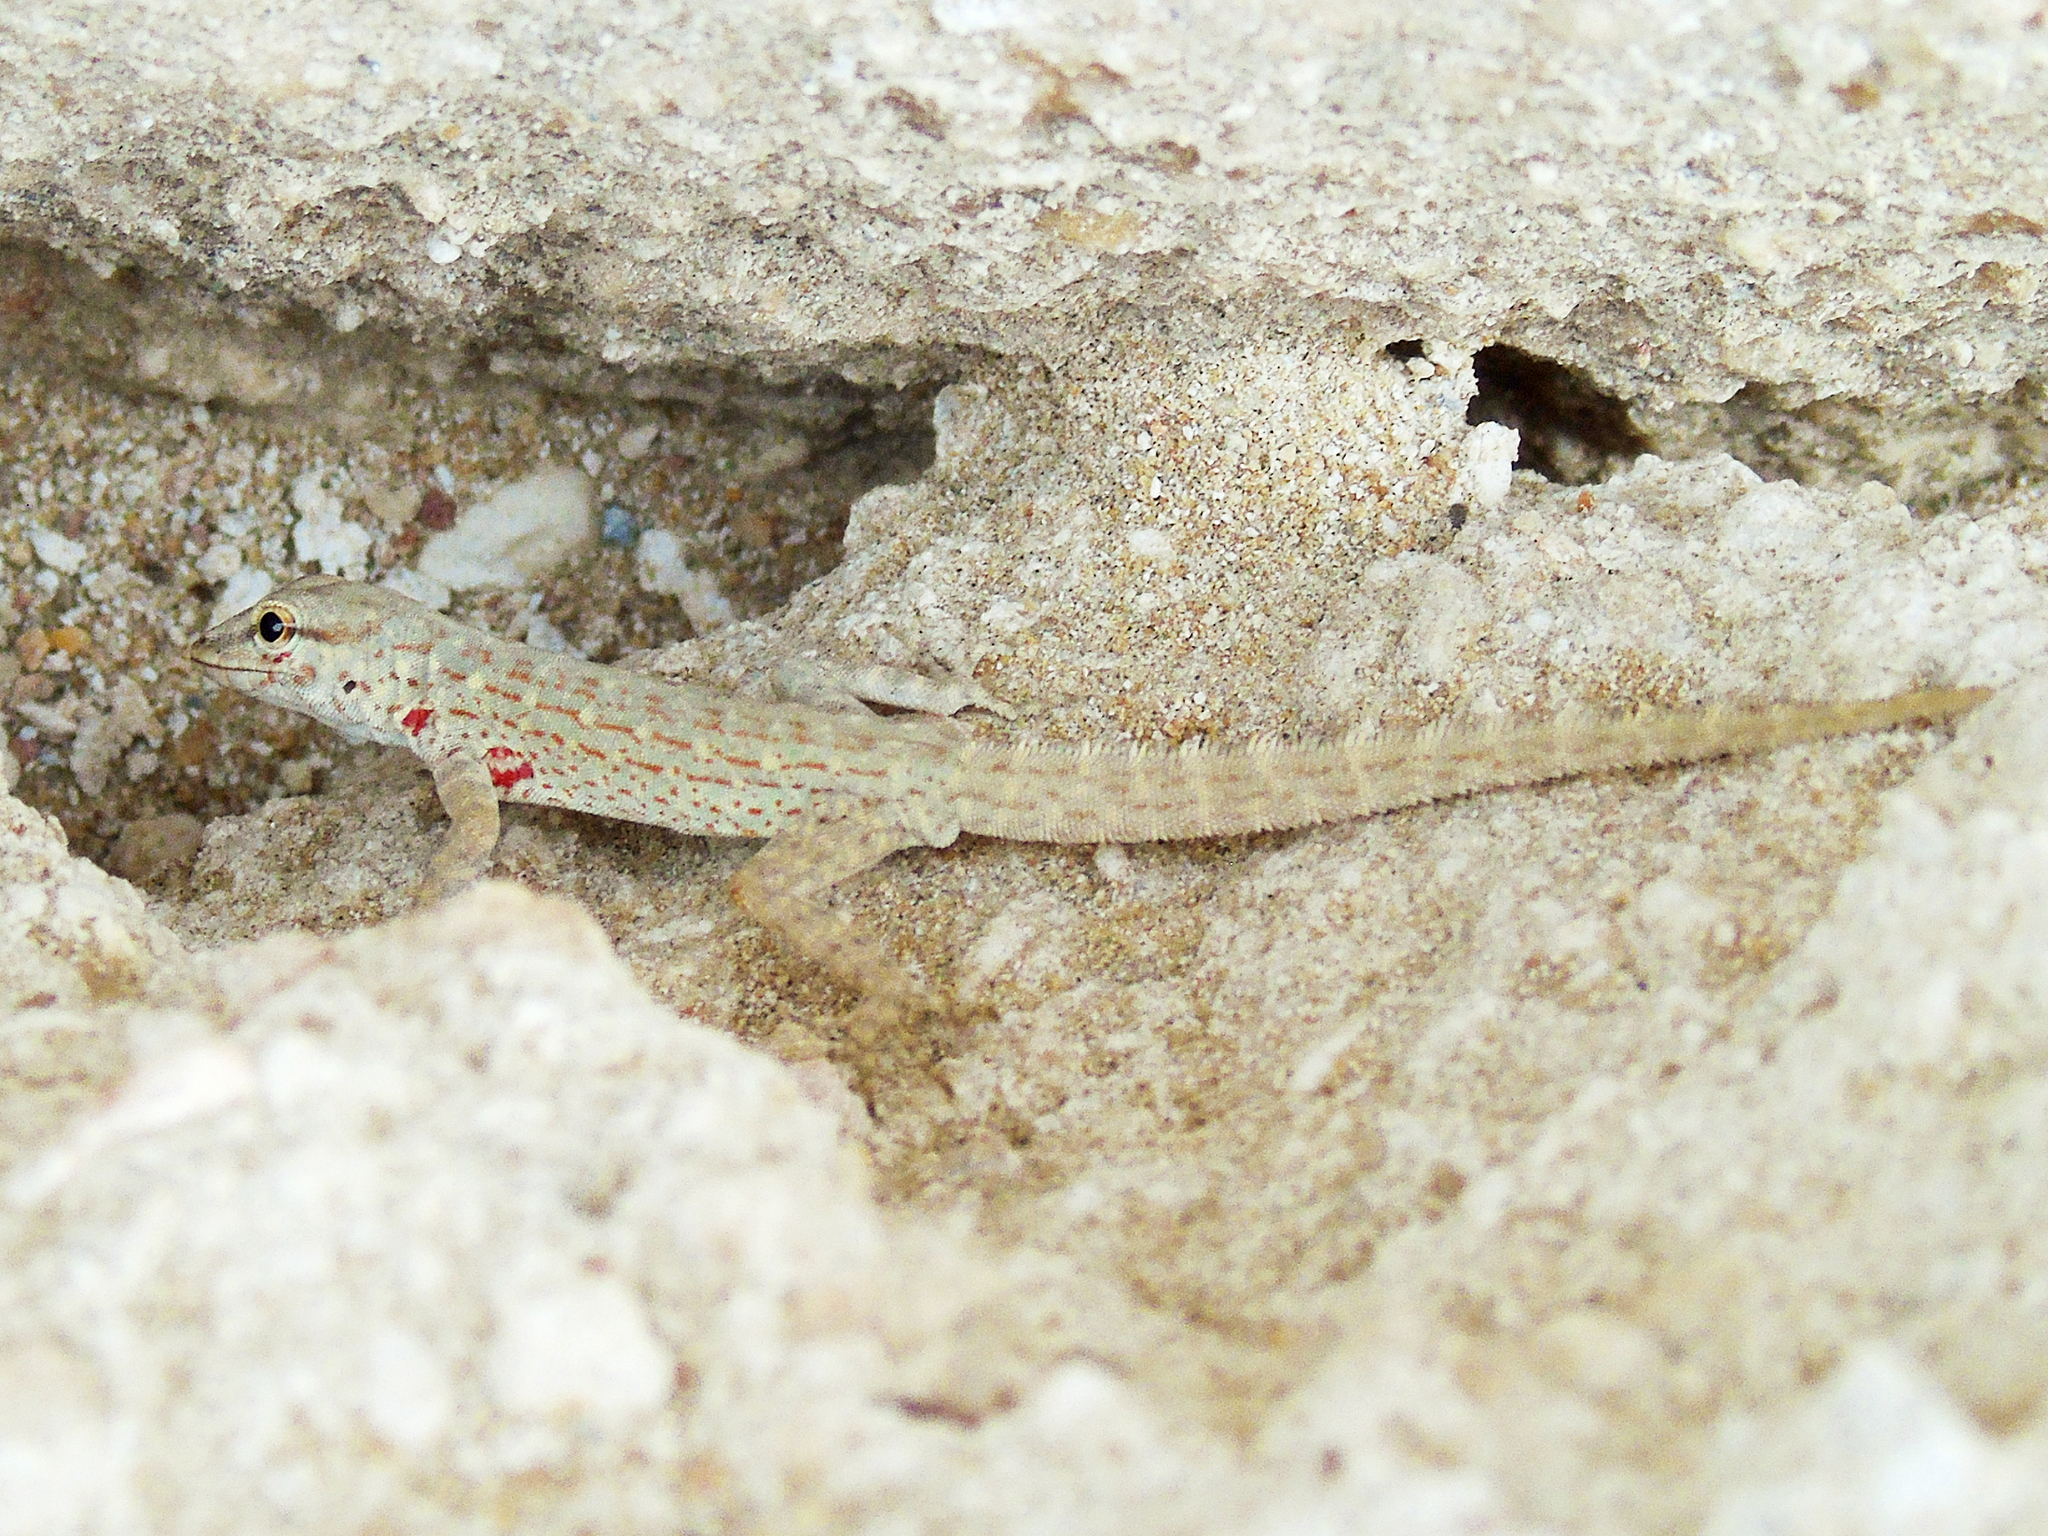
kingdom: Animalia
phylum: Chordata
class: Squamata
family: Sphaerodactylidae
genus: Pristurus
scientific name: Pristurus rupestris
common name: Blanford’s semaphore gecko
